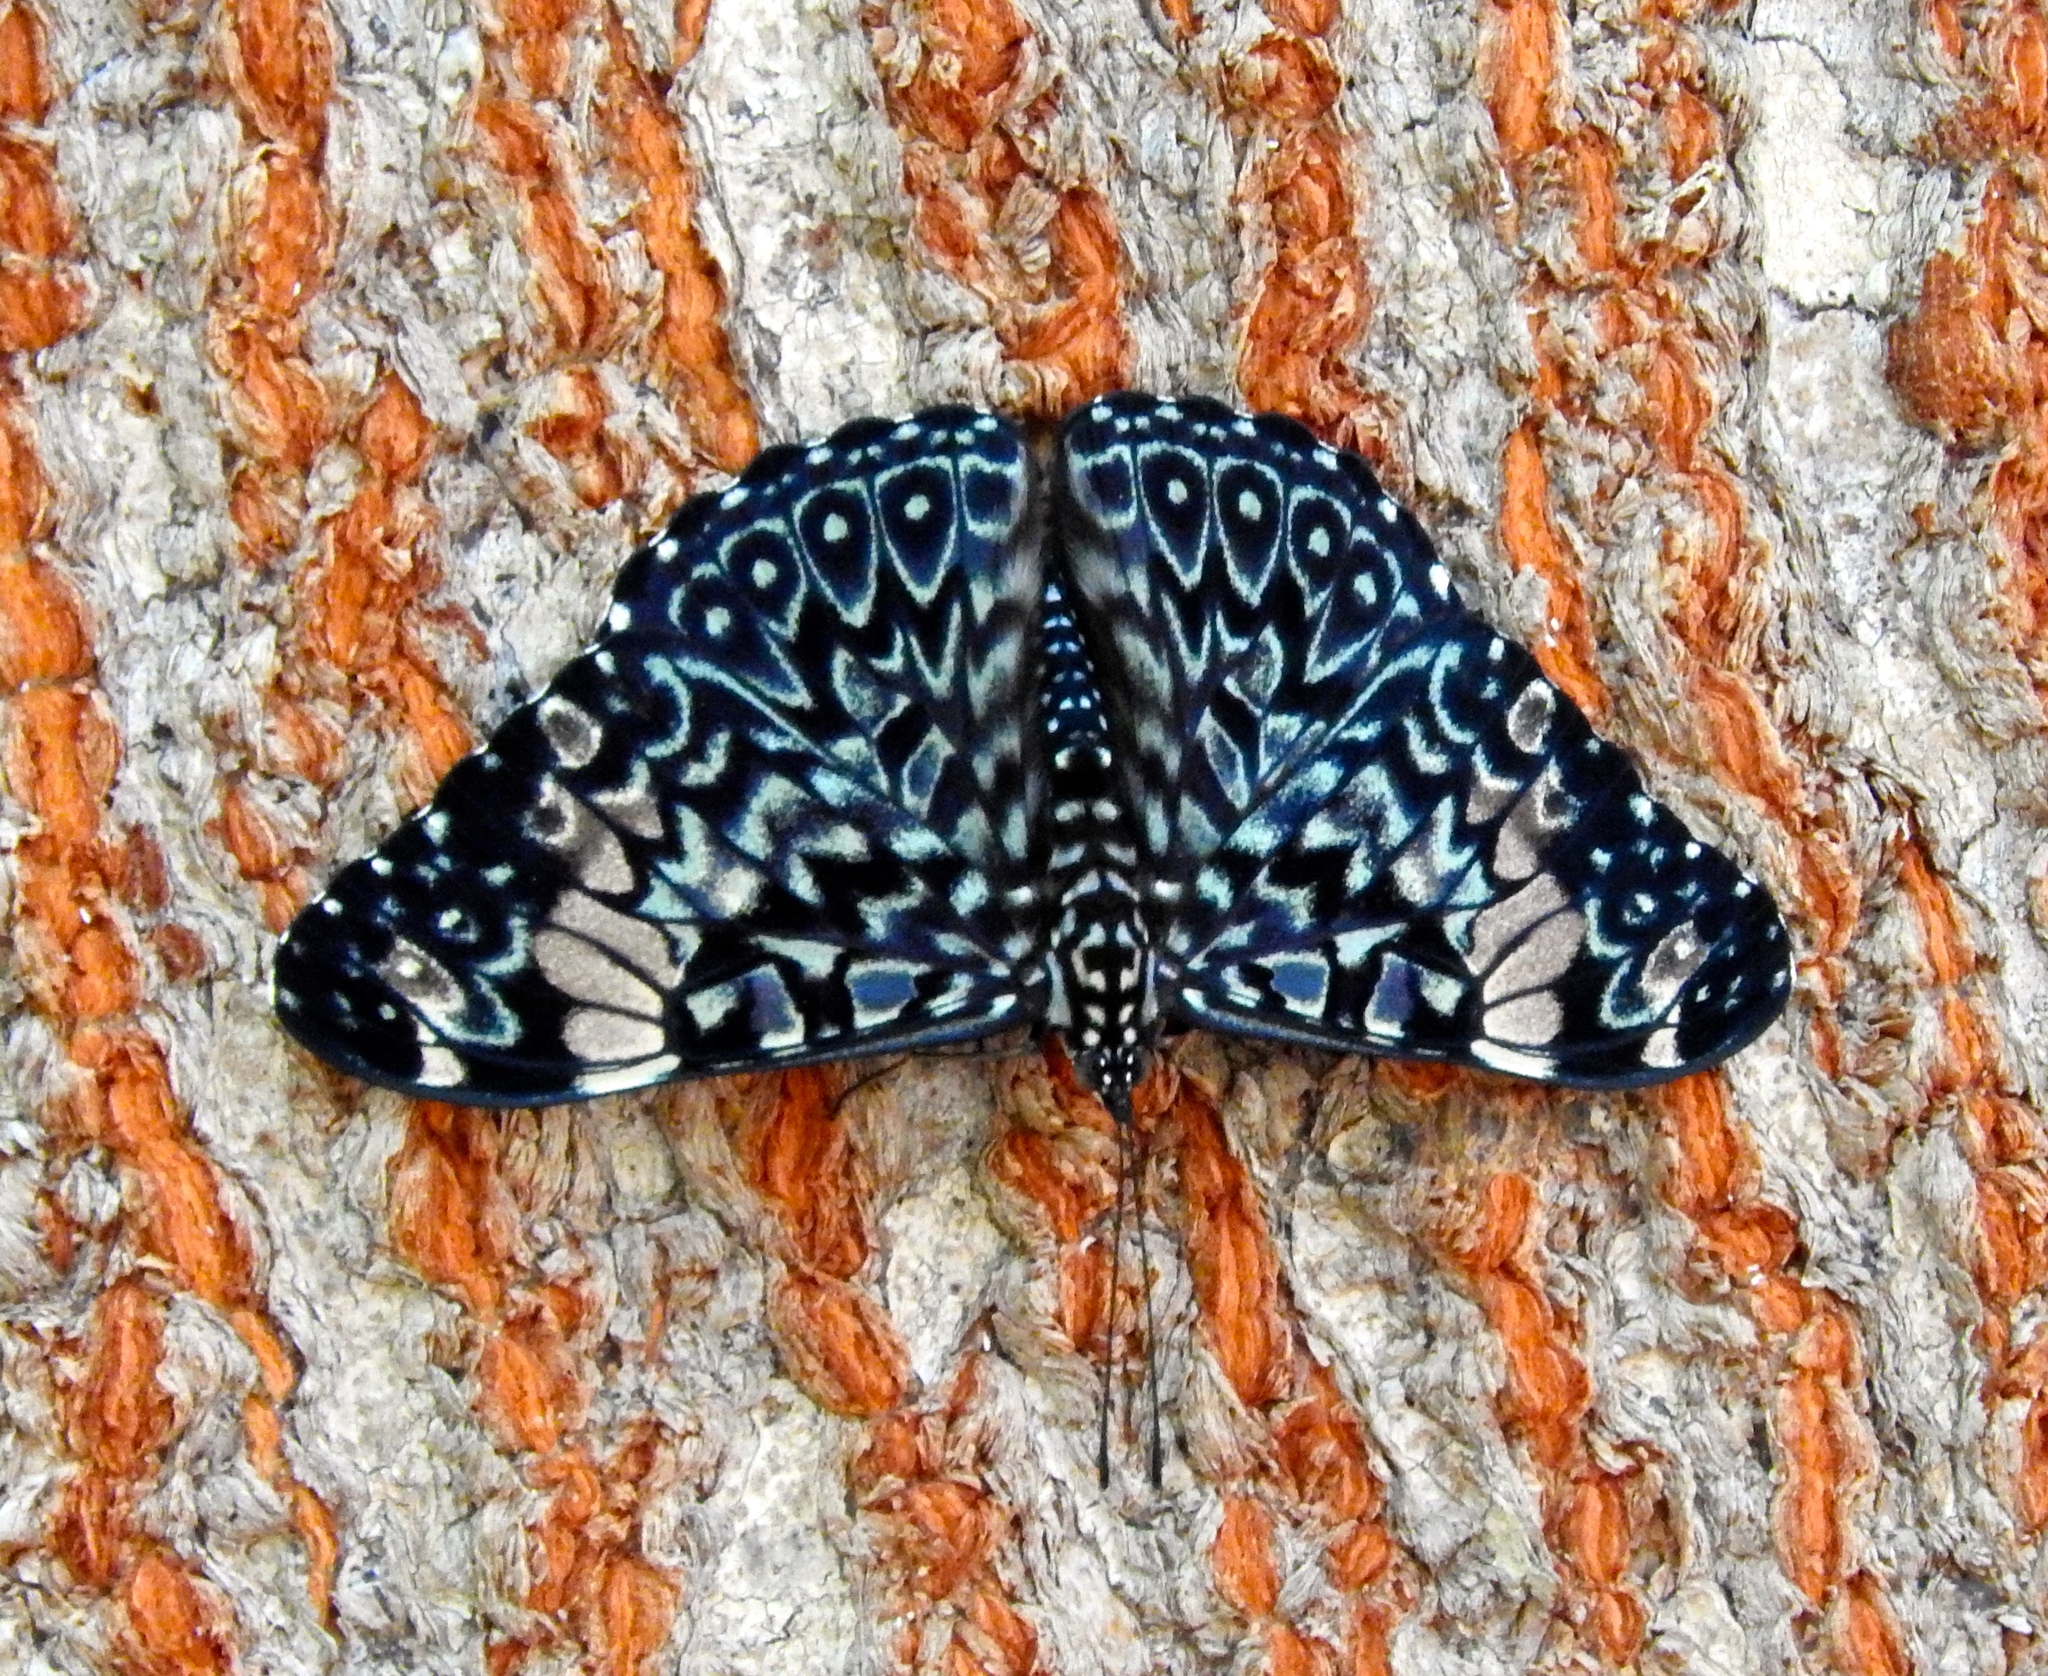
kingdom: Animalia
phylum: Arthropoda
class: Insecta
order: Lepidoptera
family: Nymphalidae
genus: Hamadryas
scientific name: Hamadryas amphinome
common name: Red cracker
